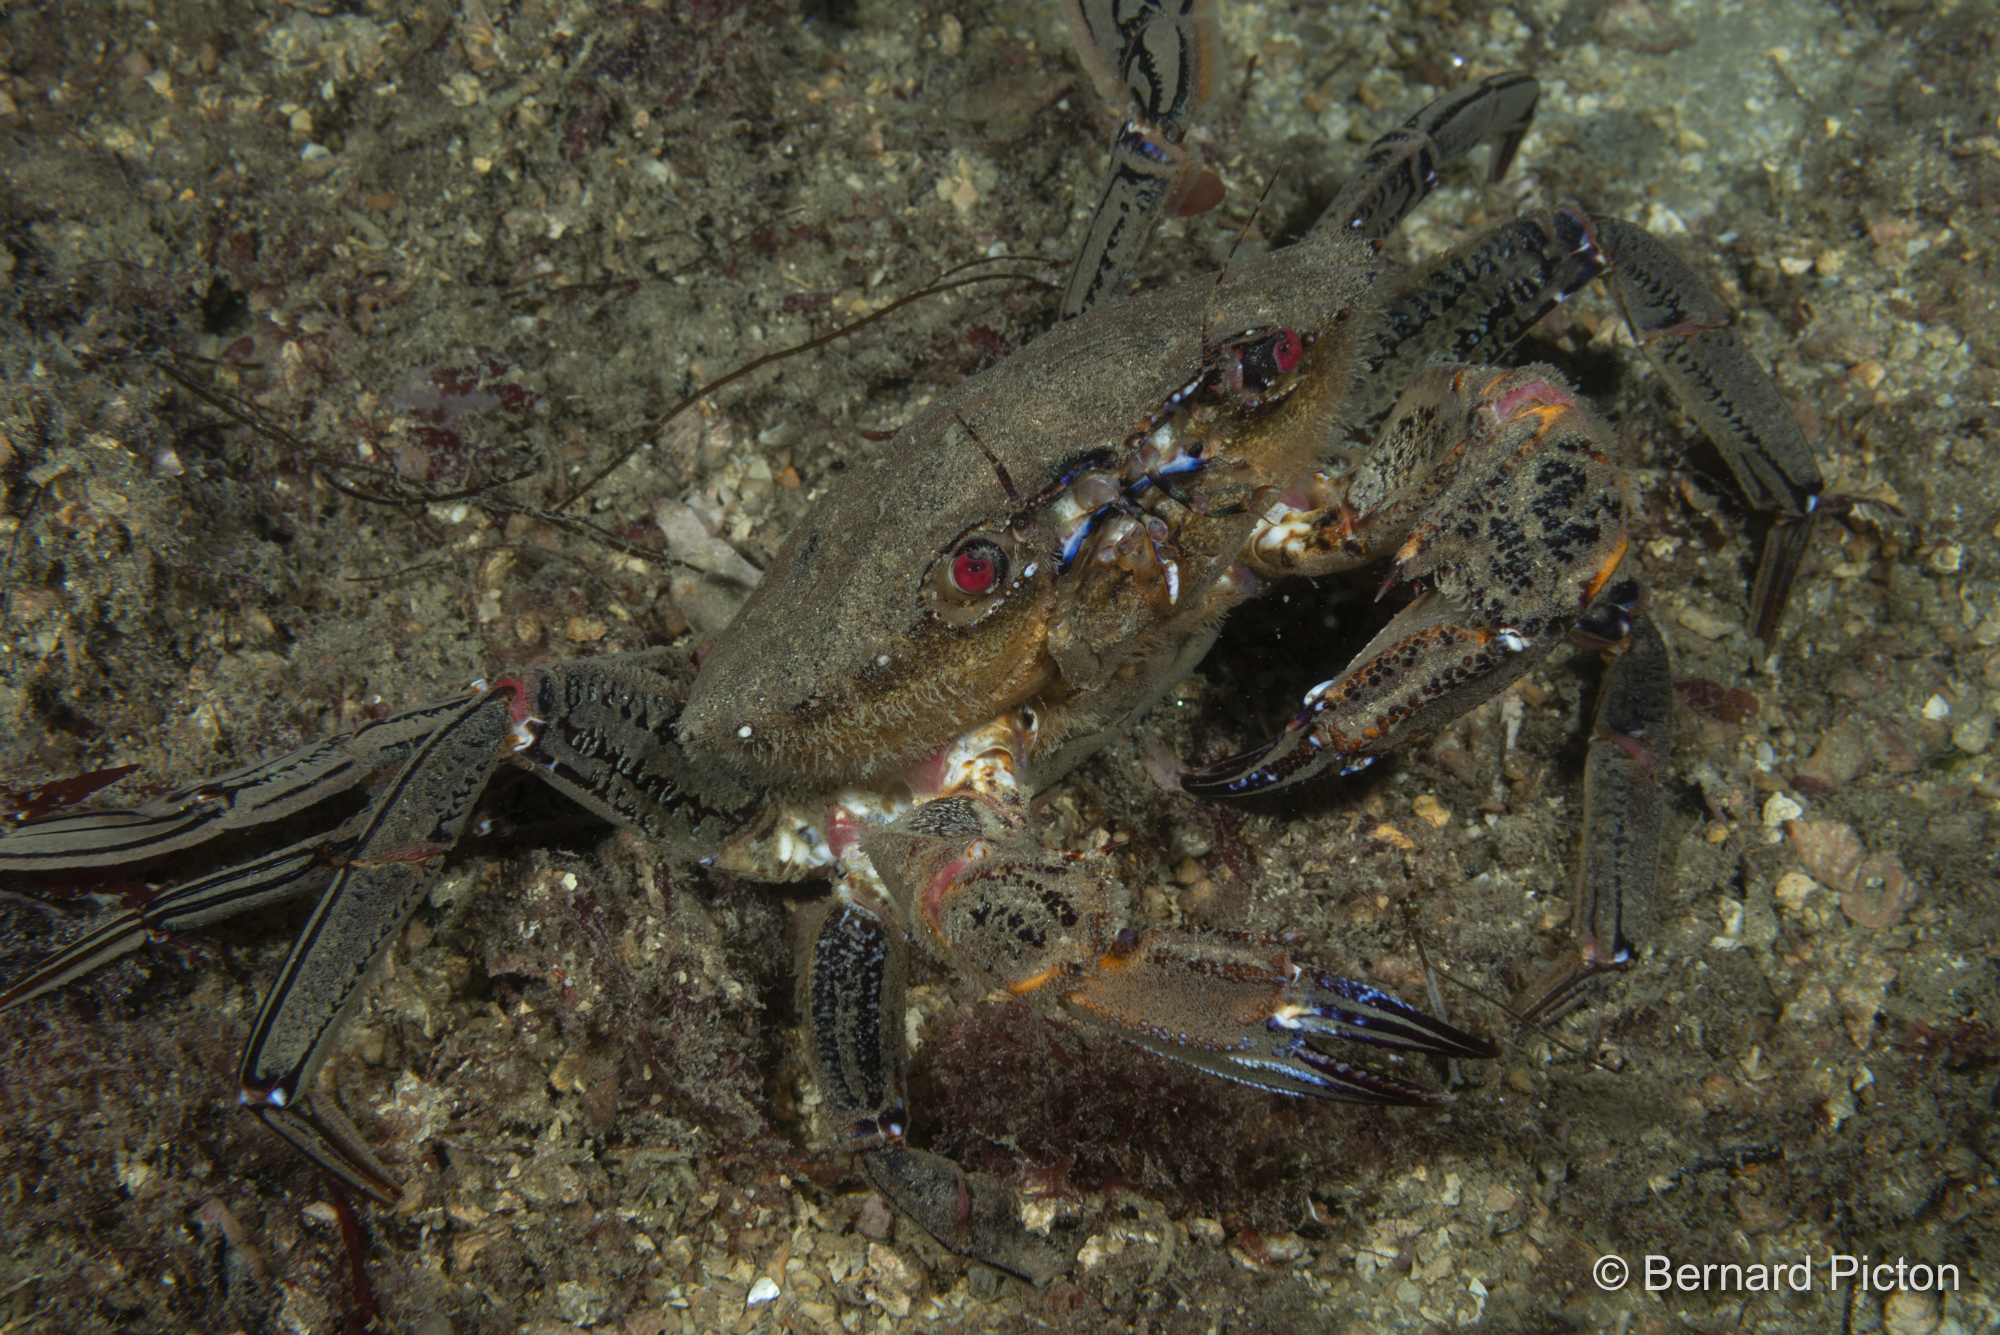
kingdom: Animalia
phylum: Arthropoda
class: Malacostraca
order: Decapoda
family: Polybiidae
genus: Necora
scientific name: Necora puber
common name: Velvet swimming crab
